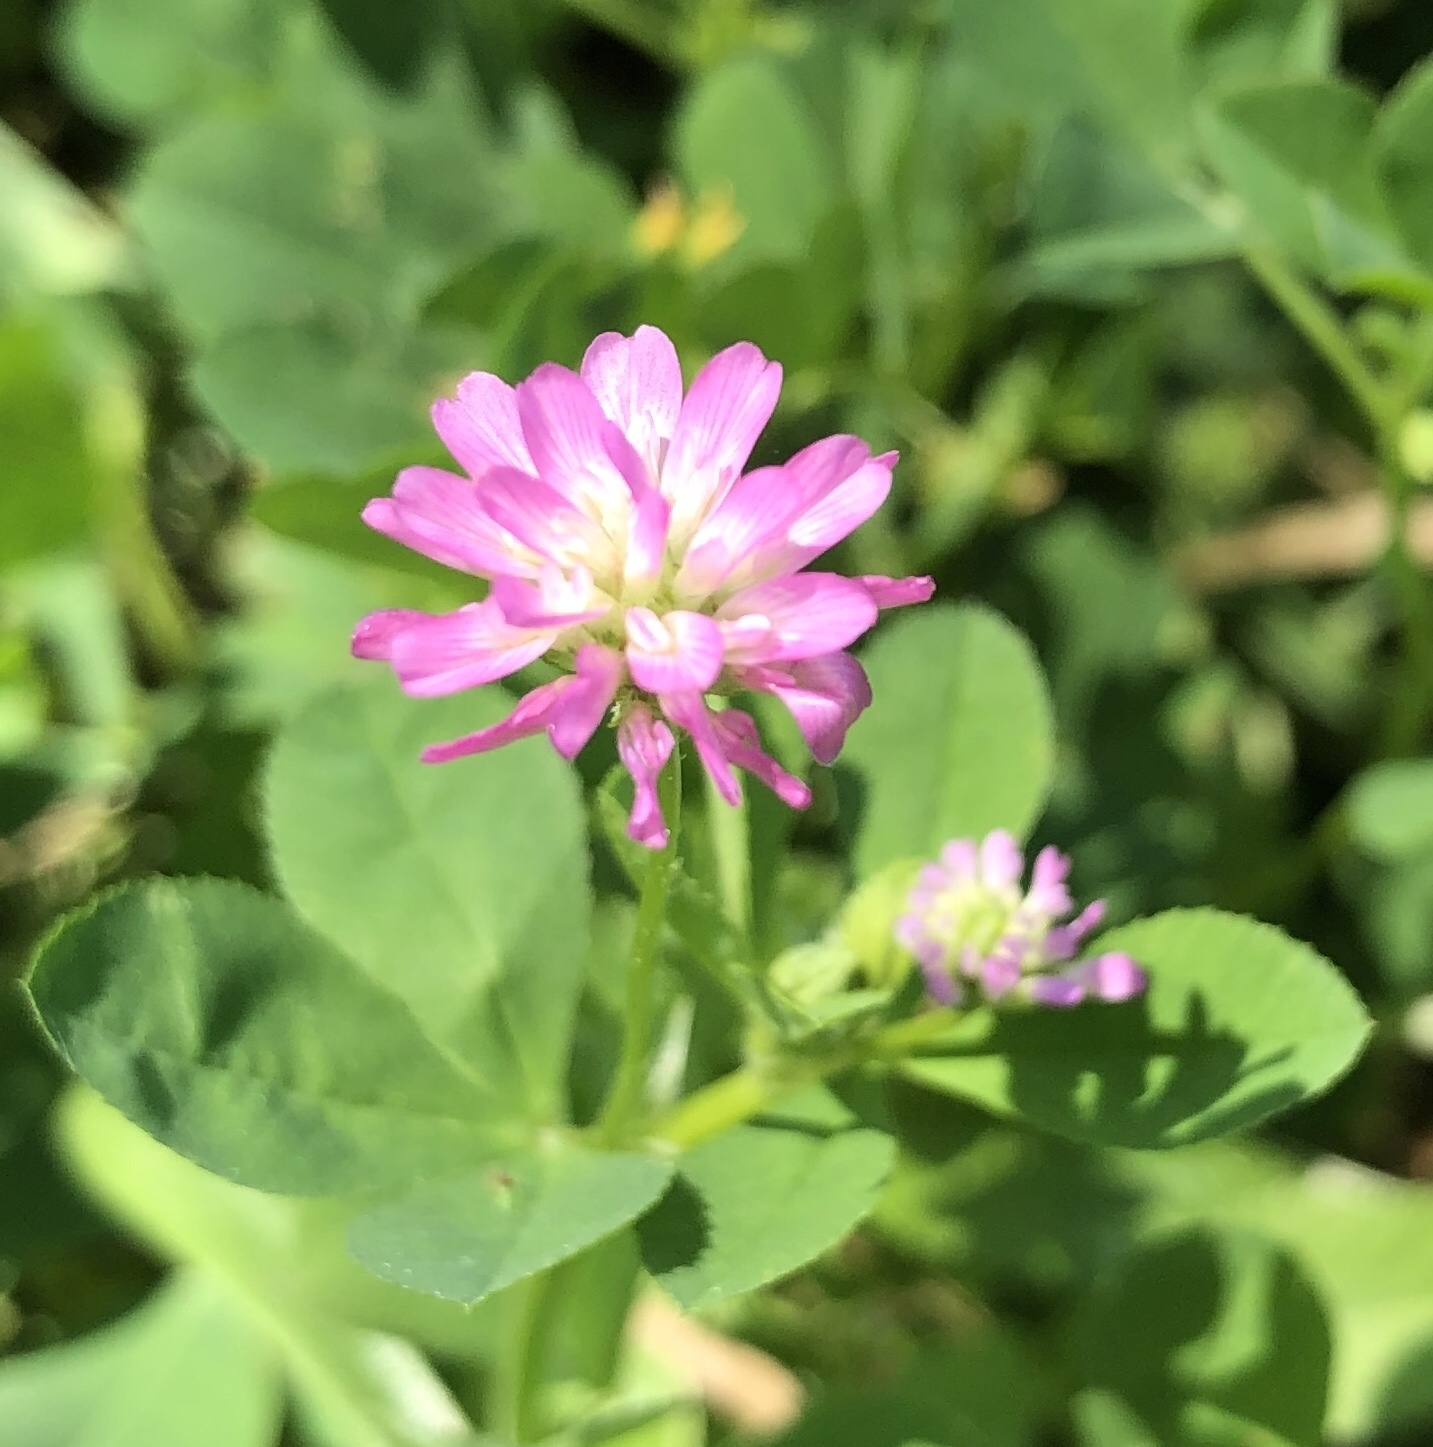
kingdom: Plantae
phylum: Tracheophyta
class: Magnoliopsida
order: Fabales
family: Fabaceae
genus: Trifolium
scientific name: Trifolium resupinatum
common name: Reversed clover
